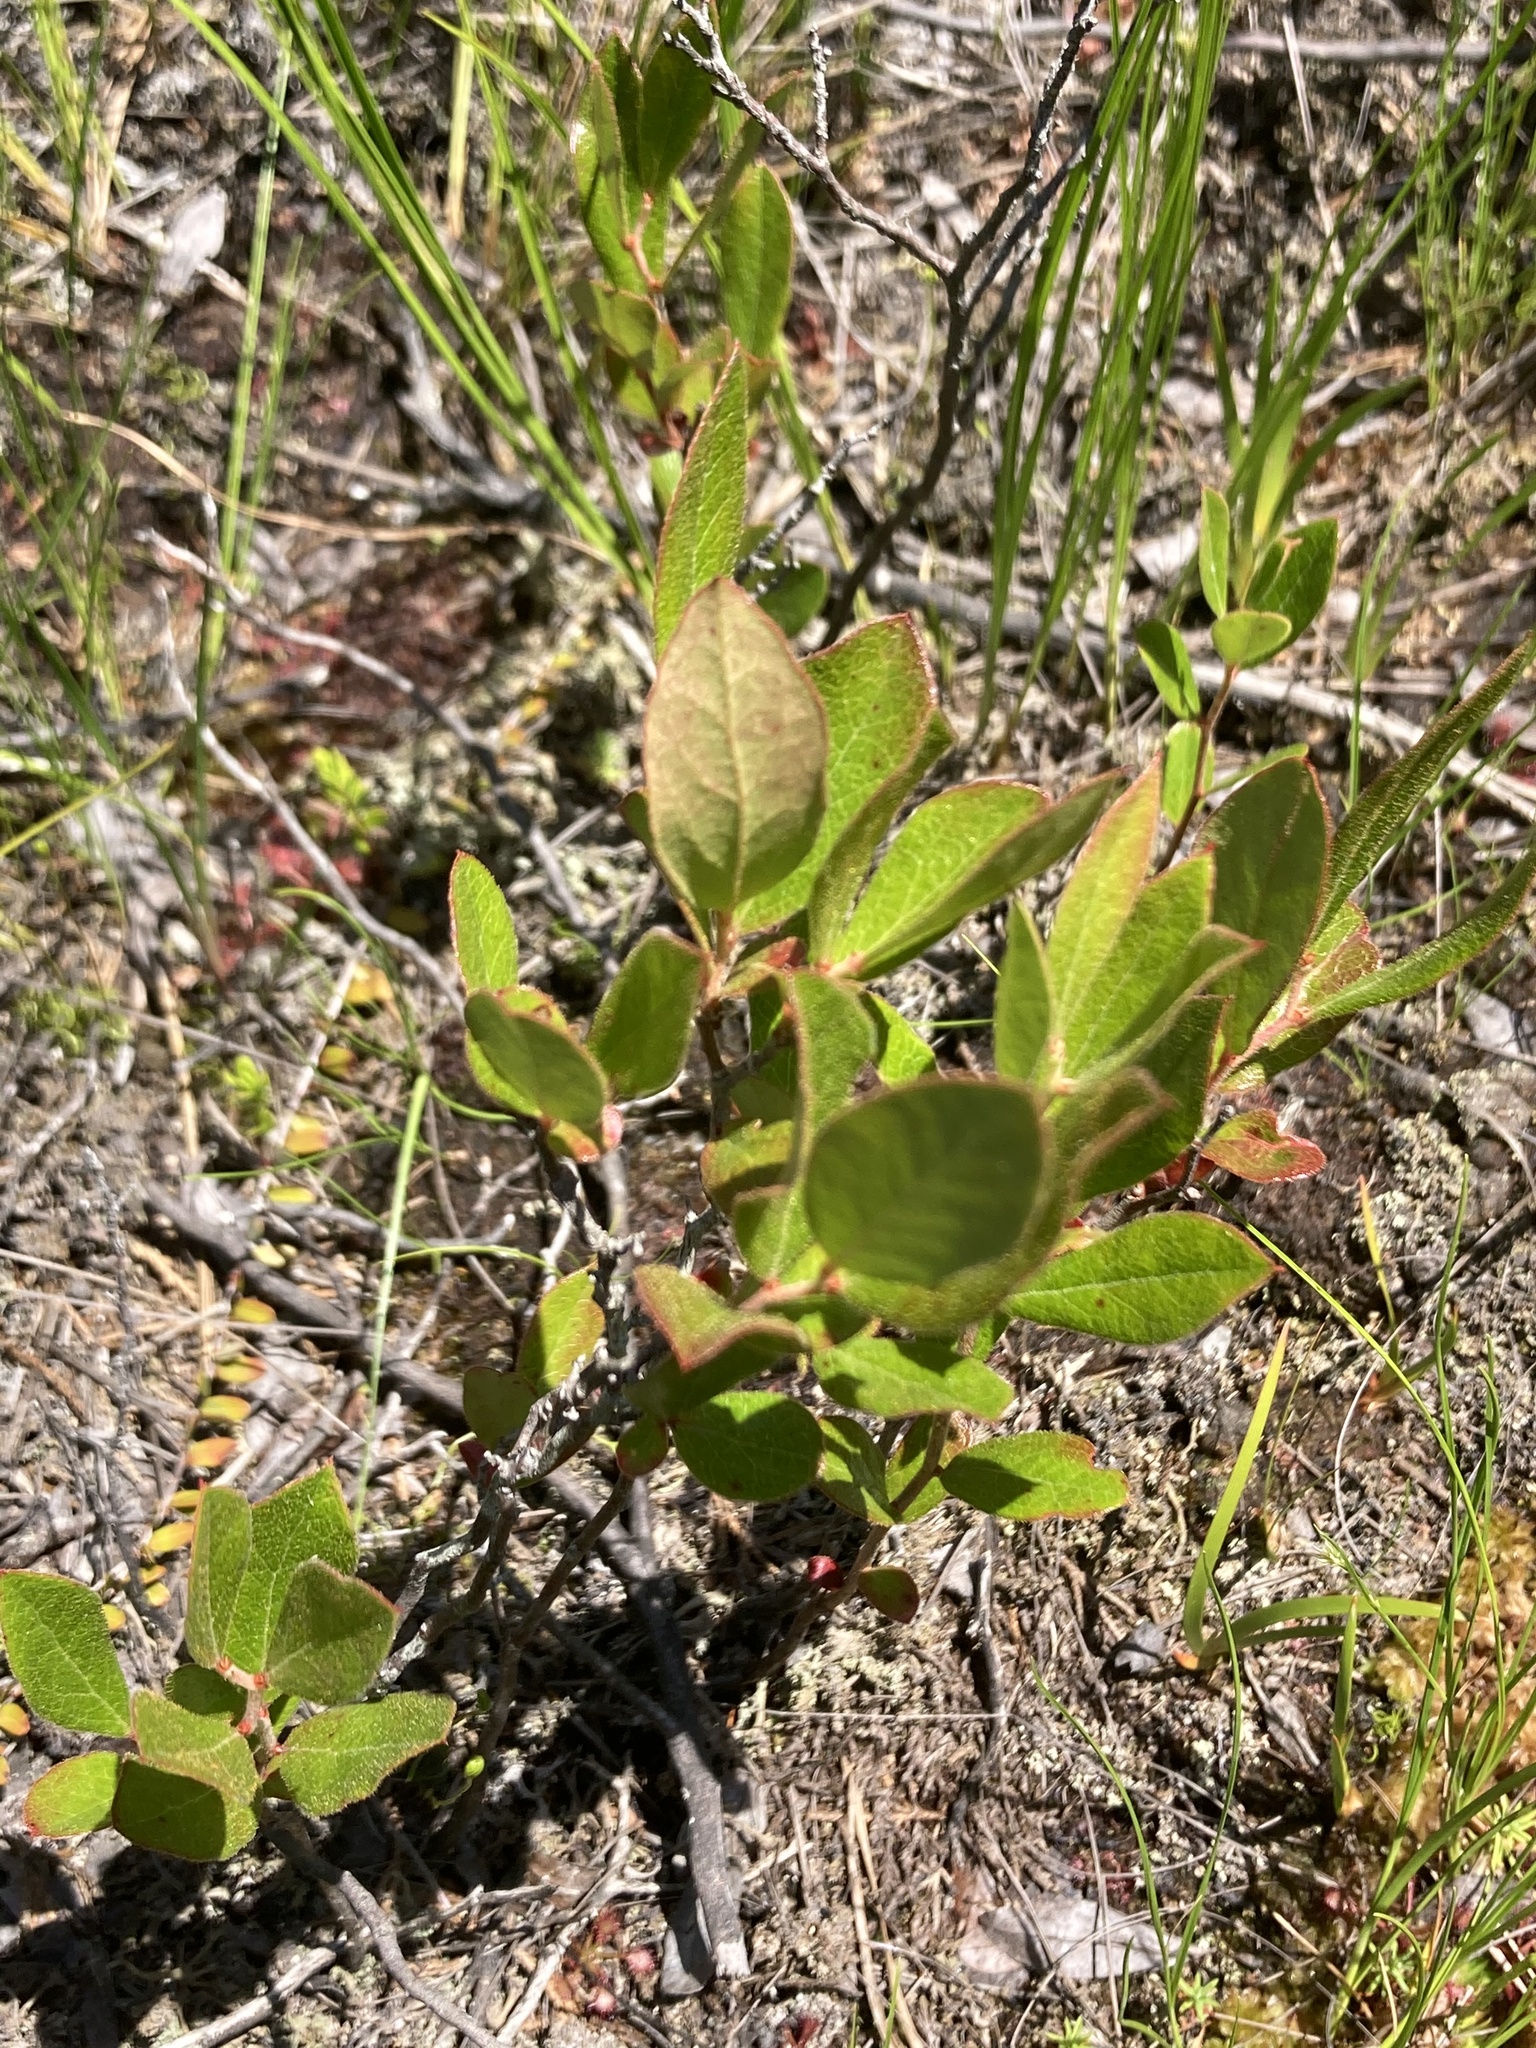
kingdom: Plantae
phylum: Tracheophyta
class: Magnoliopsida
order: Ericales
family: Ericaceae
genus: Gaylussacia
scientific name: Gaylussacia bigeloviana
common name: Bog huckleberry
